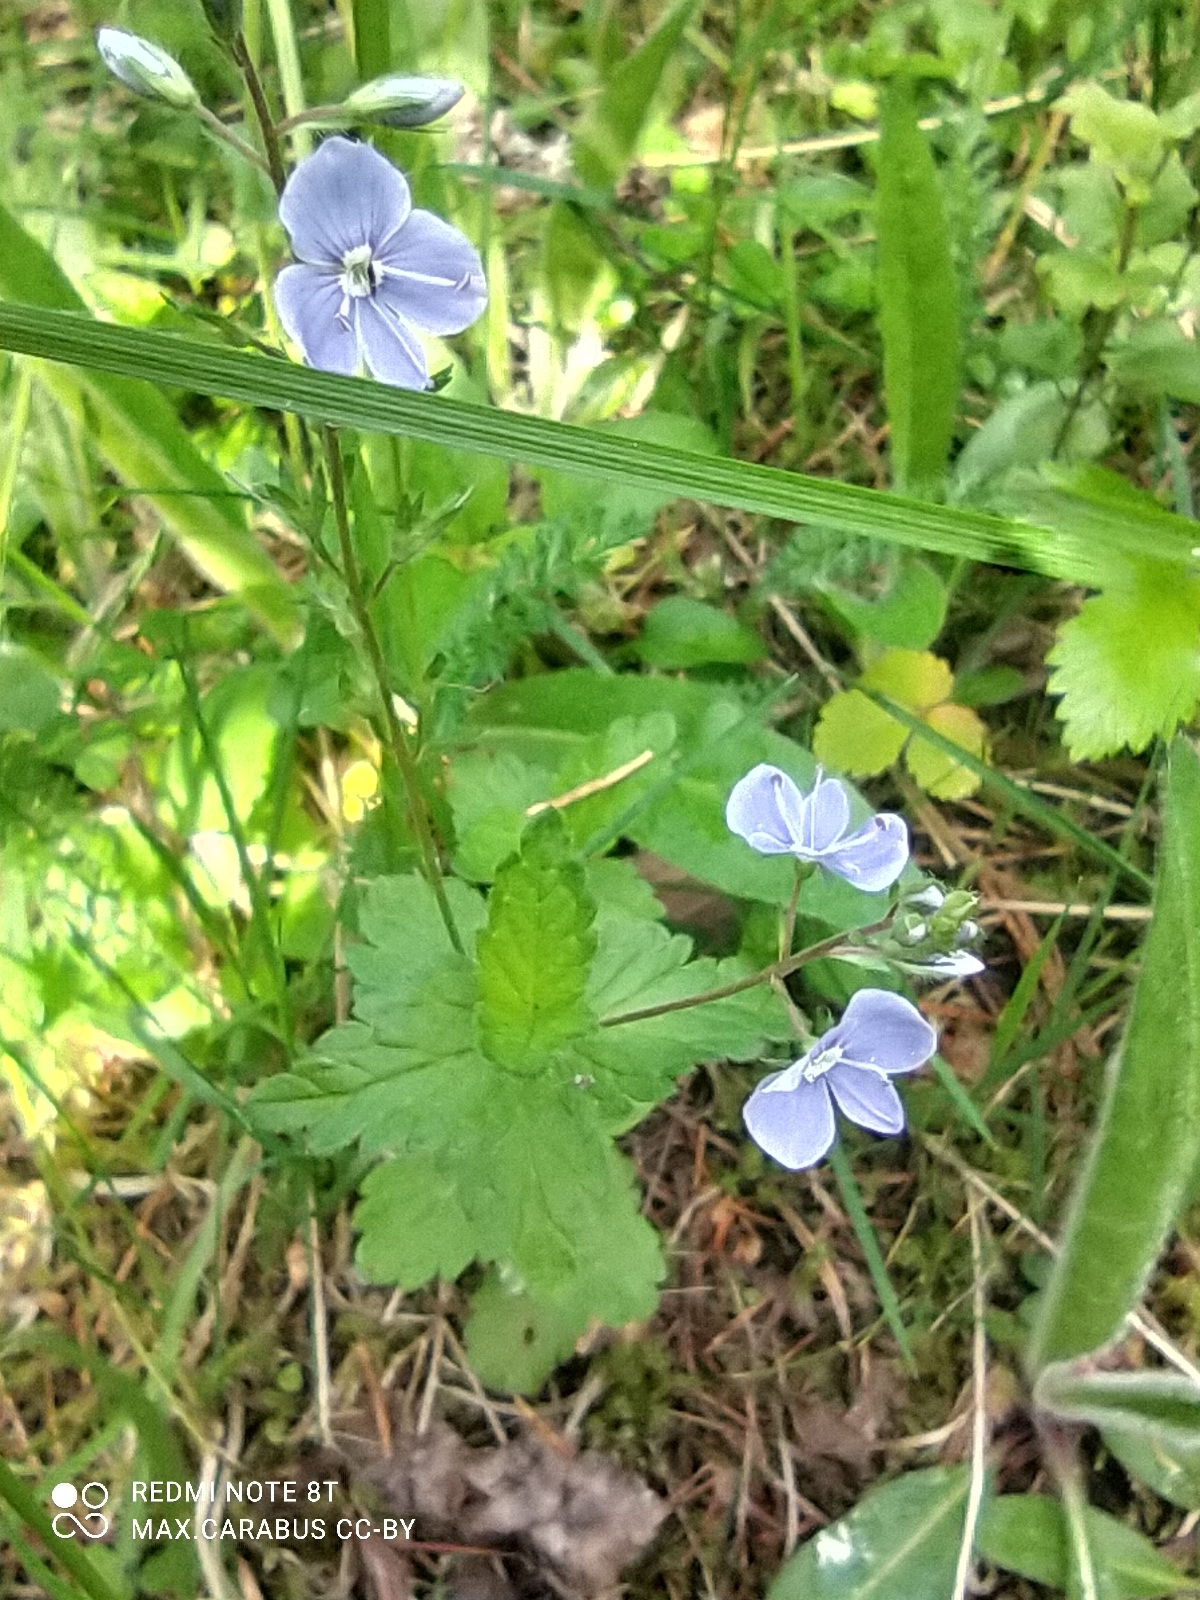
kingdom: Plantae
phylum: Tracheophyta
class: Magnoliopsida
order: Lamiales
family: Plantaginaceae
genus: Veronica
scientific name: Veronica chamaedrys
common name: Germander speedwell
